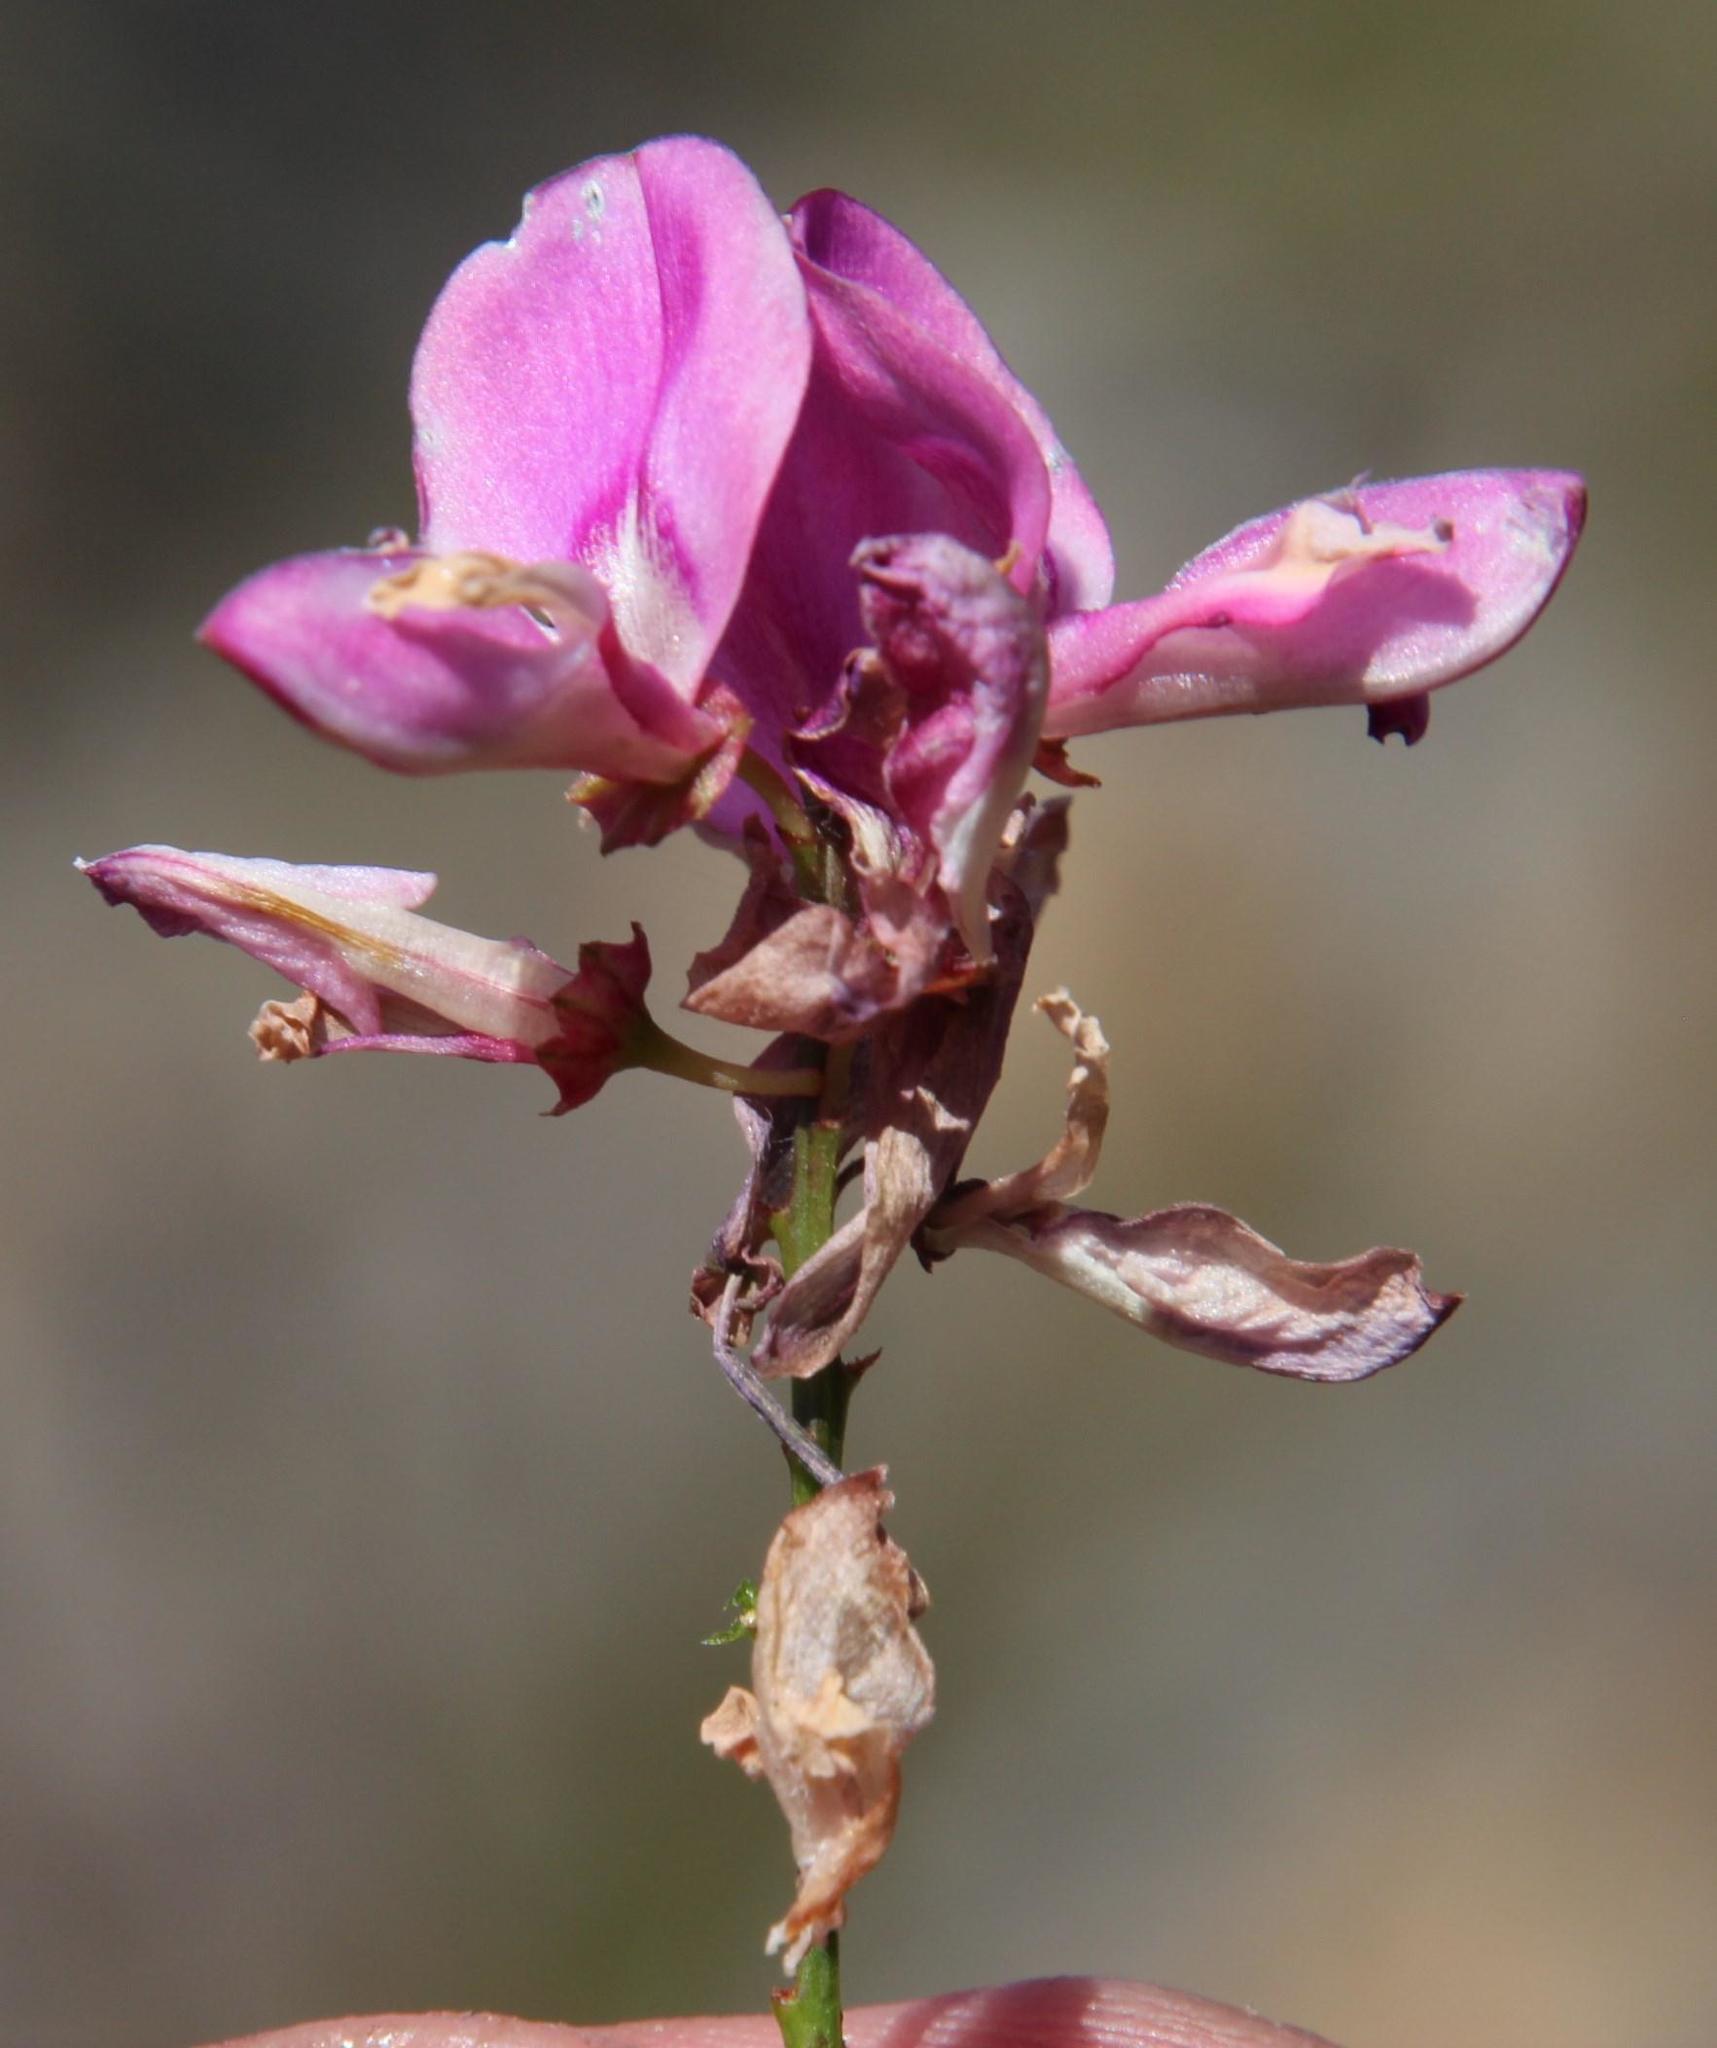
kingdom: Plantae
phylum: Tracheophyta
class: Magnoliopsida
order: Fabales
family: Fabaceae
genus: Indigofera
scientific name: Indigofera langebergensis
